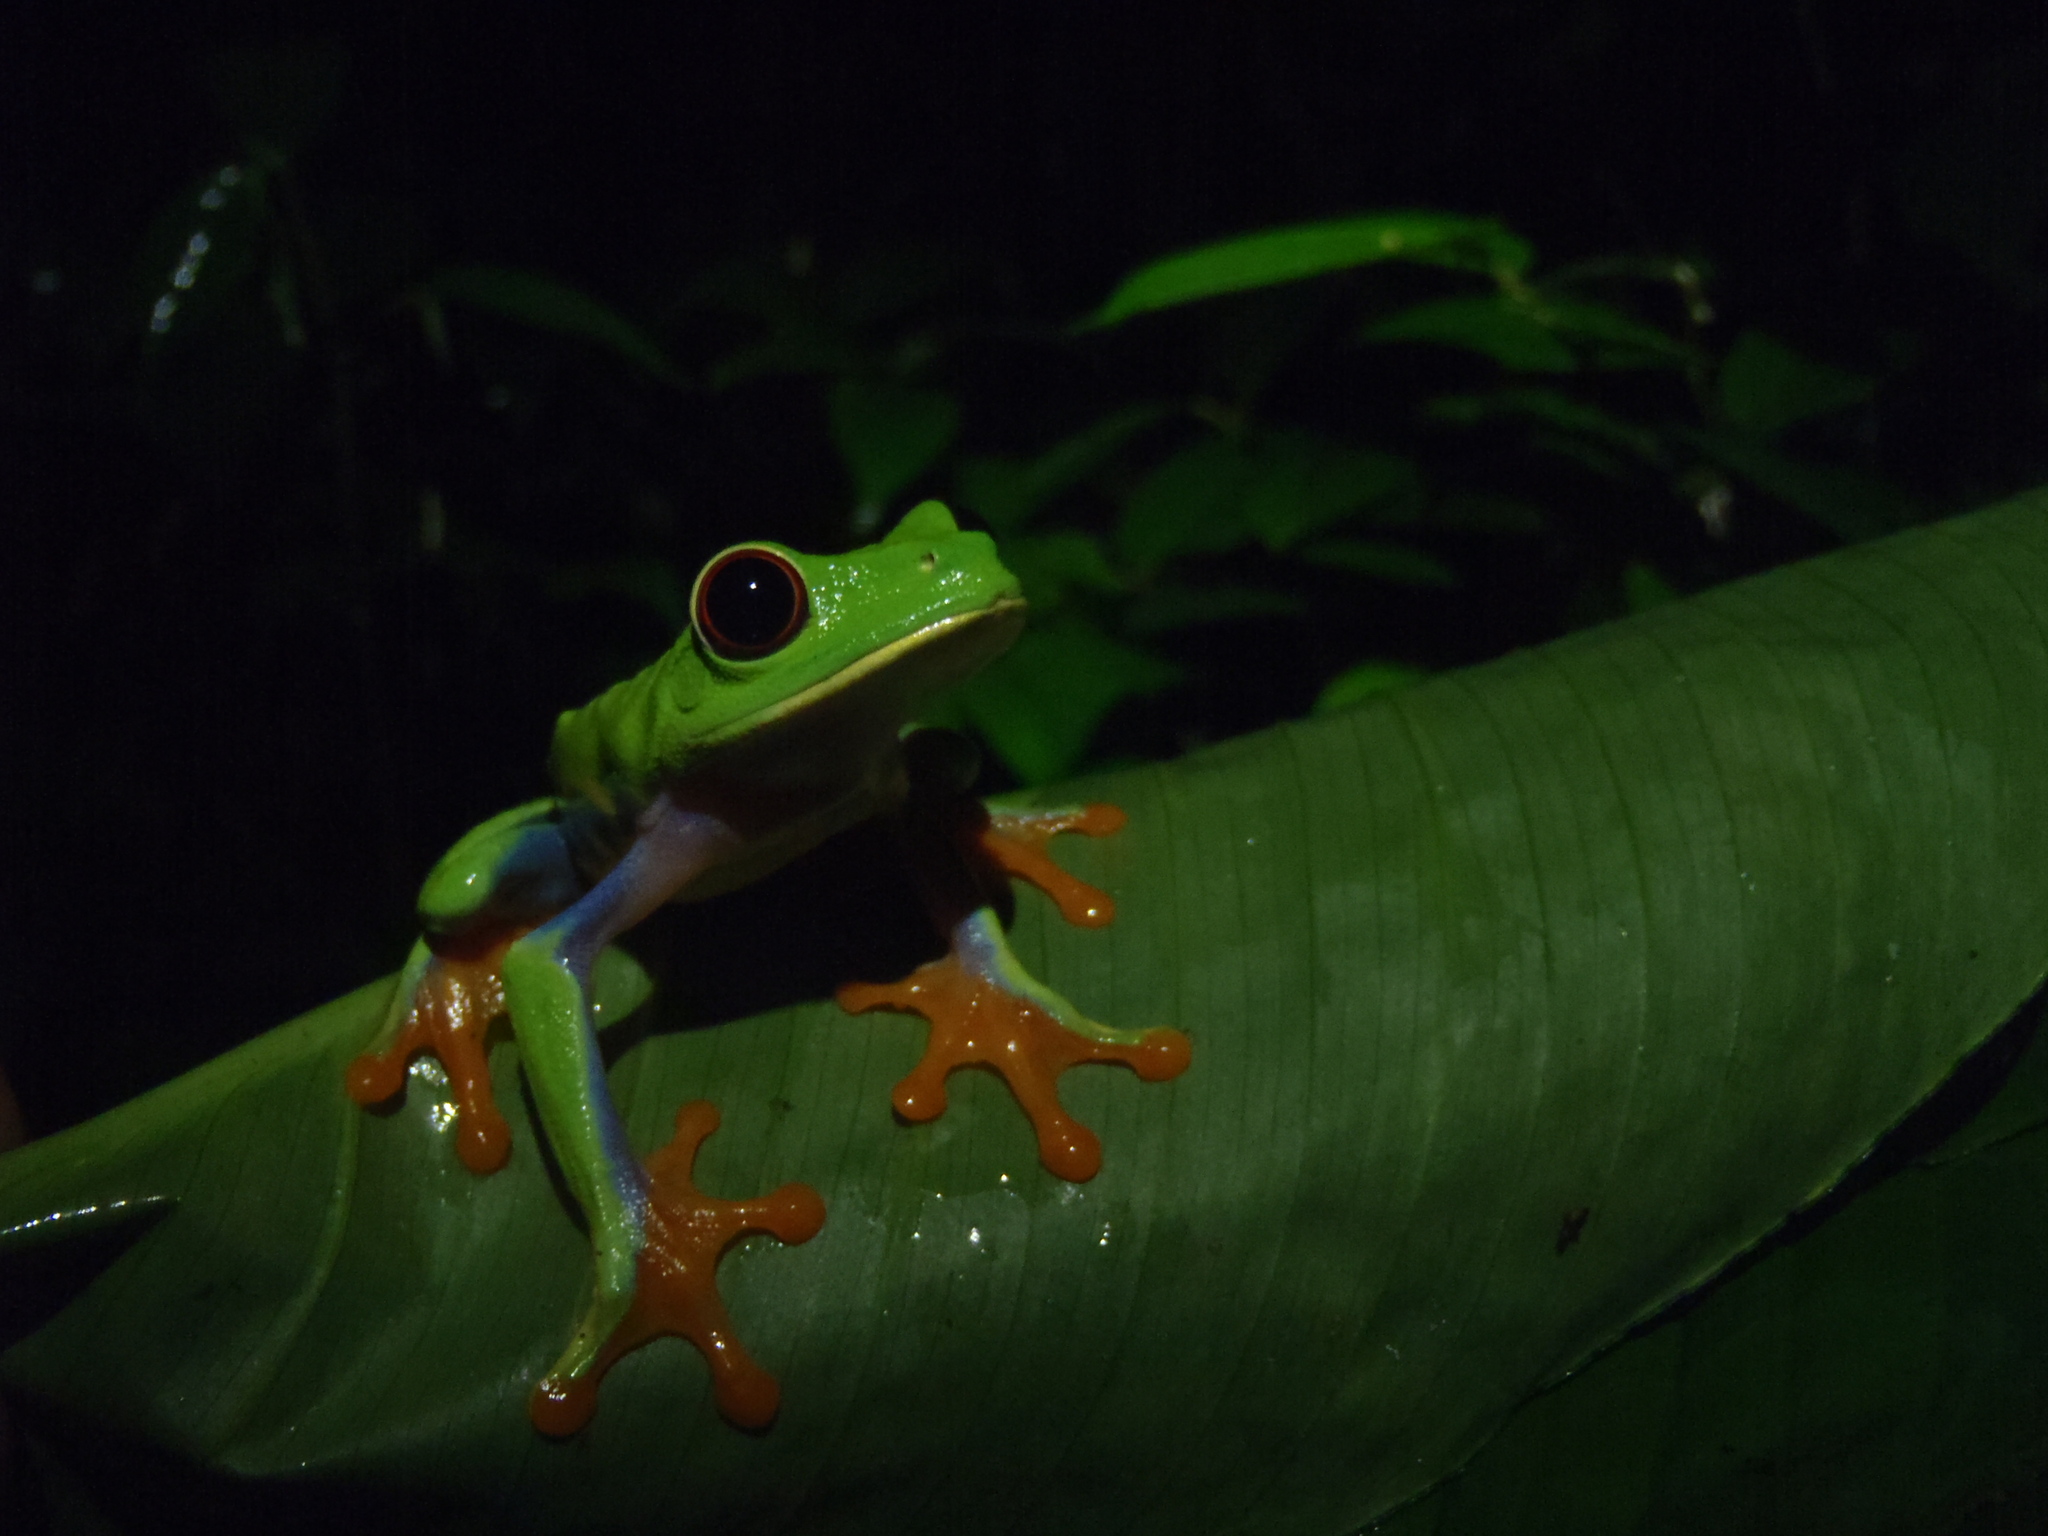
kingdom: Animalia
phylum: Chordata
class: Amphibia
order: Anura
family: Phyllomedusidae
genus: Agalychnis
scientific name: Agalychnis callidryas
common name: Red-eyed treefrog
